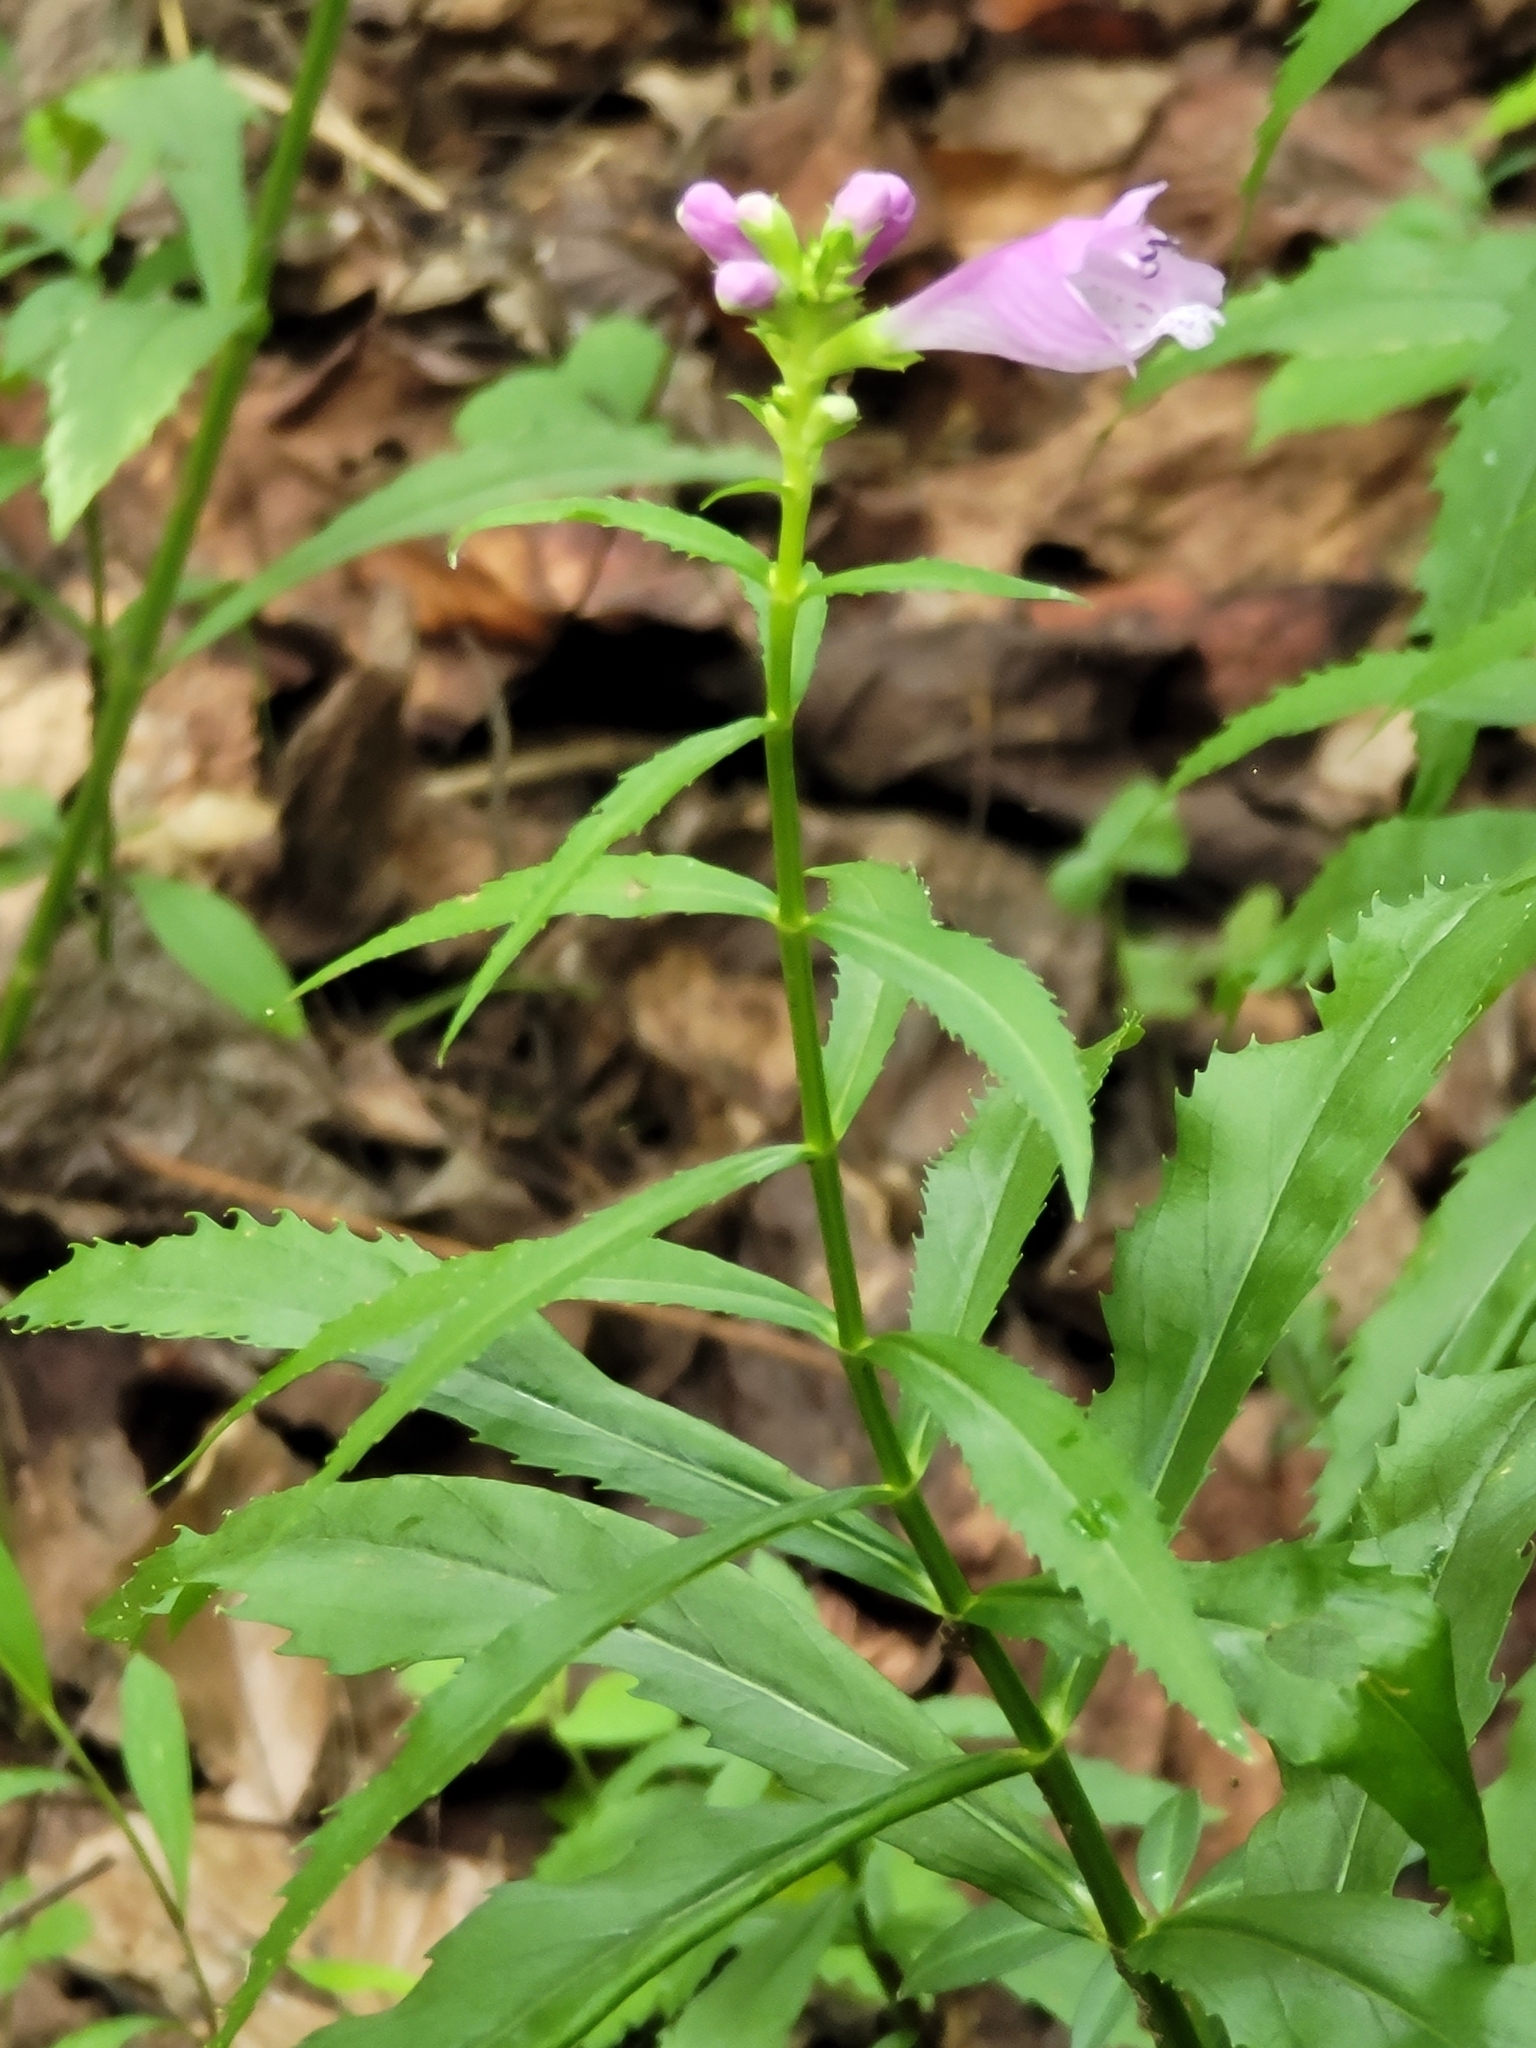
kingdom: Plantae
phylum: Tracheophyta
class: Magnoliopsida
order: Lamiales
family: Lamiaceae
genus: Physostegia
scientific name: Physostegia virginiana
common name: Obedient-plant
